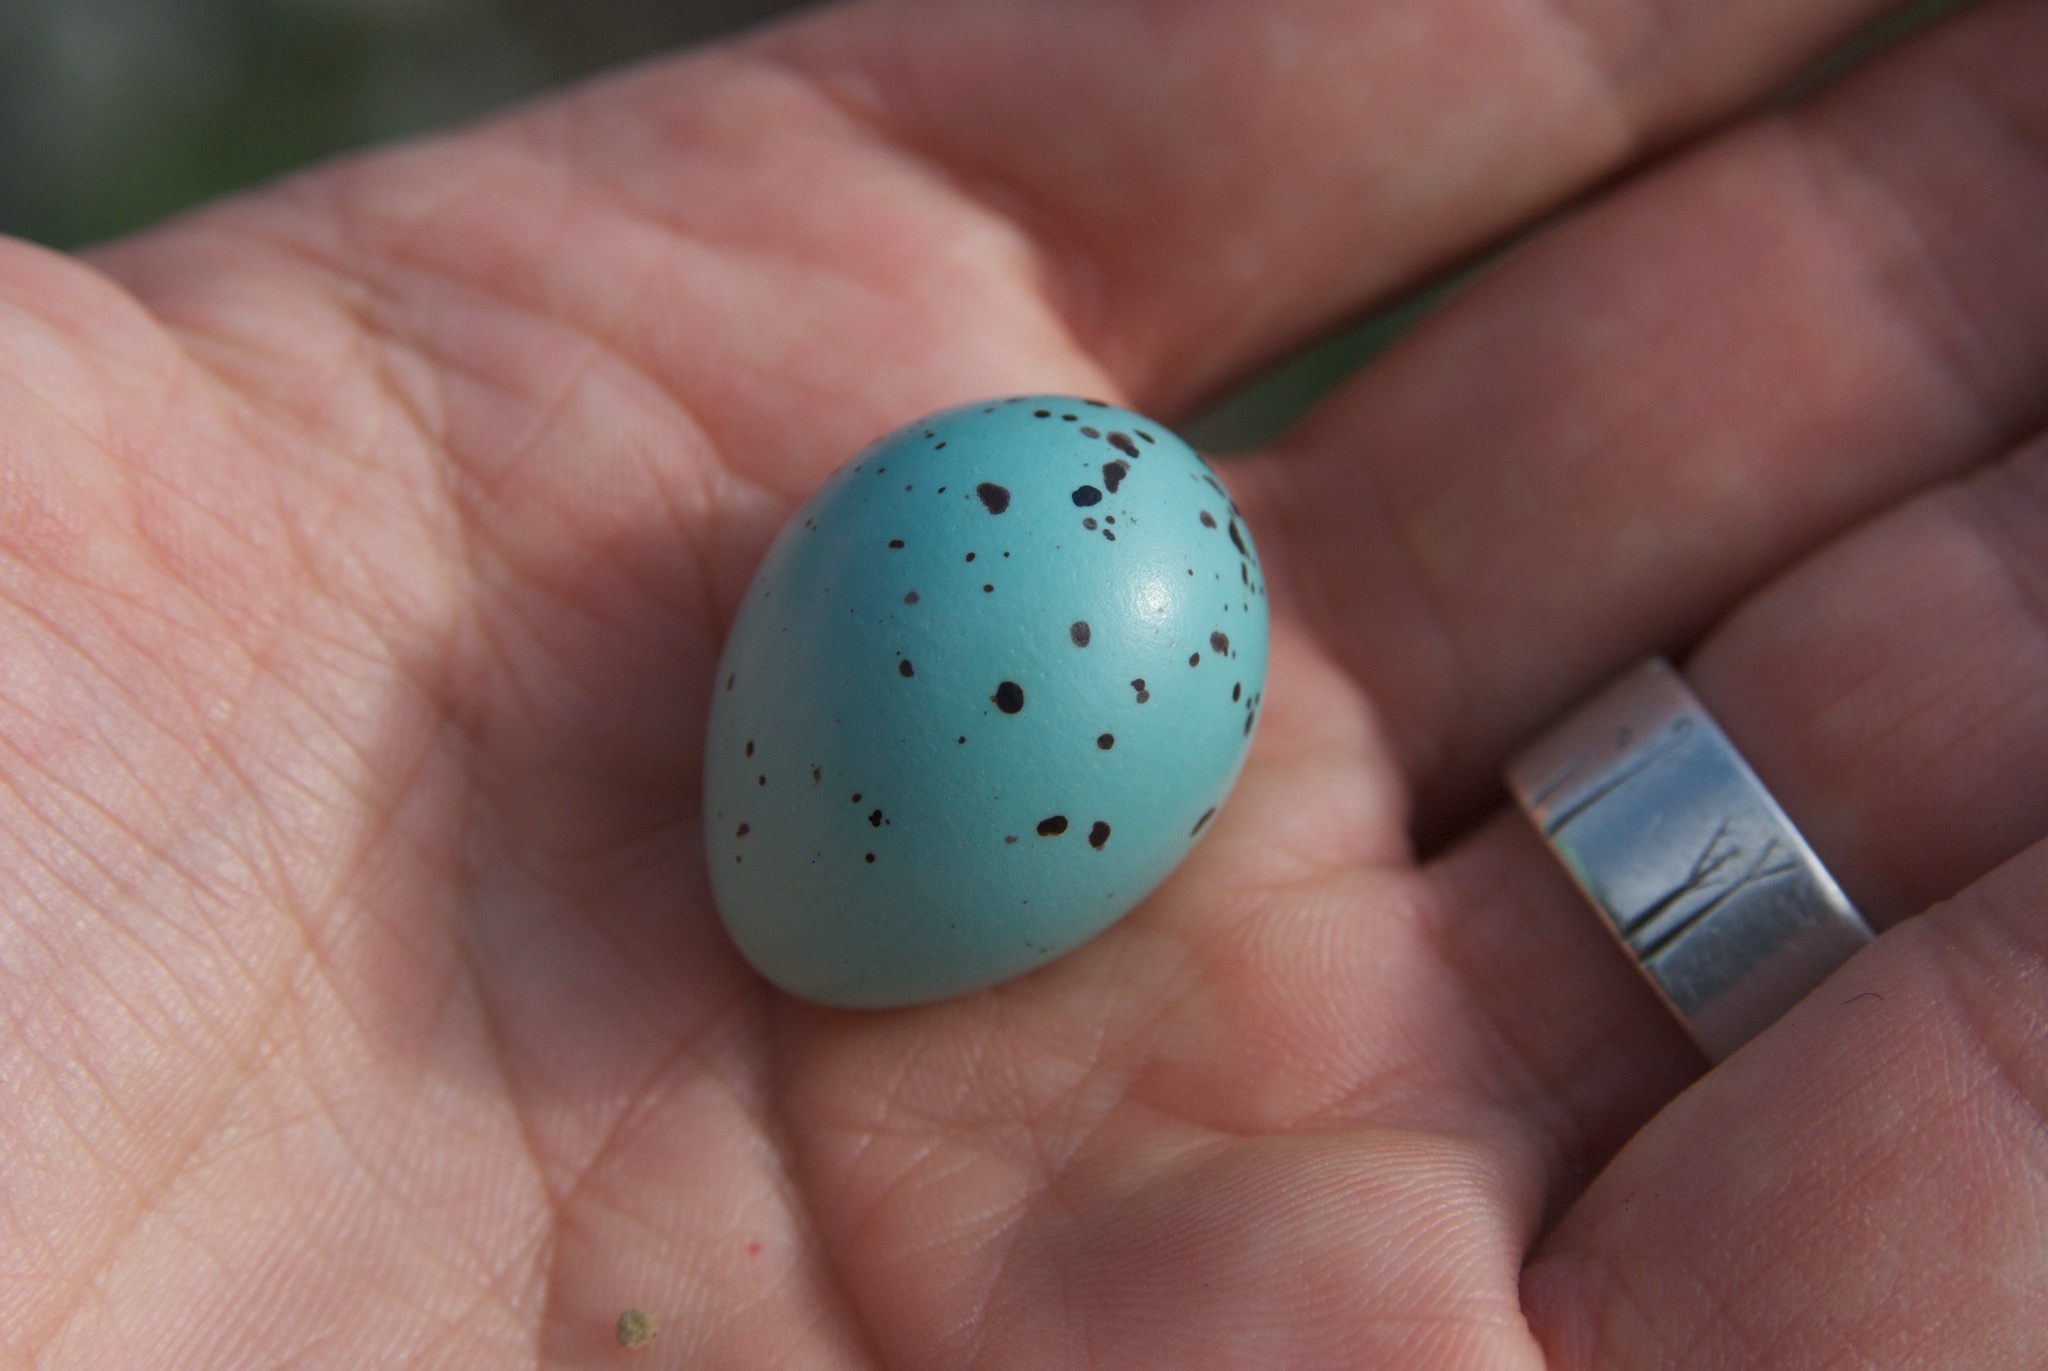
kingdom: Animalia
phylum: Chordata
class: Aves
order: Passeriformes
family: Turdidae
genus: Turdus
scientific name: Turdus philomelos
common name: Song thrush
